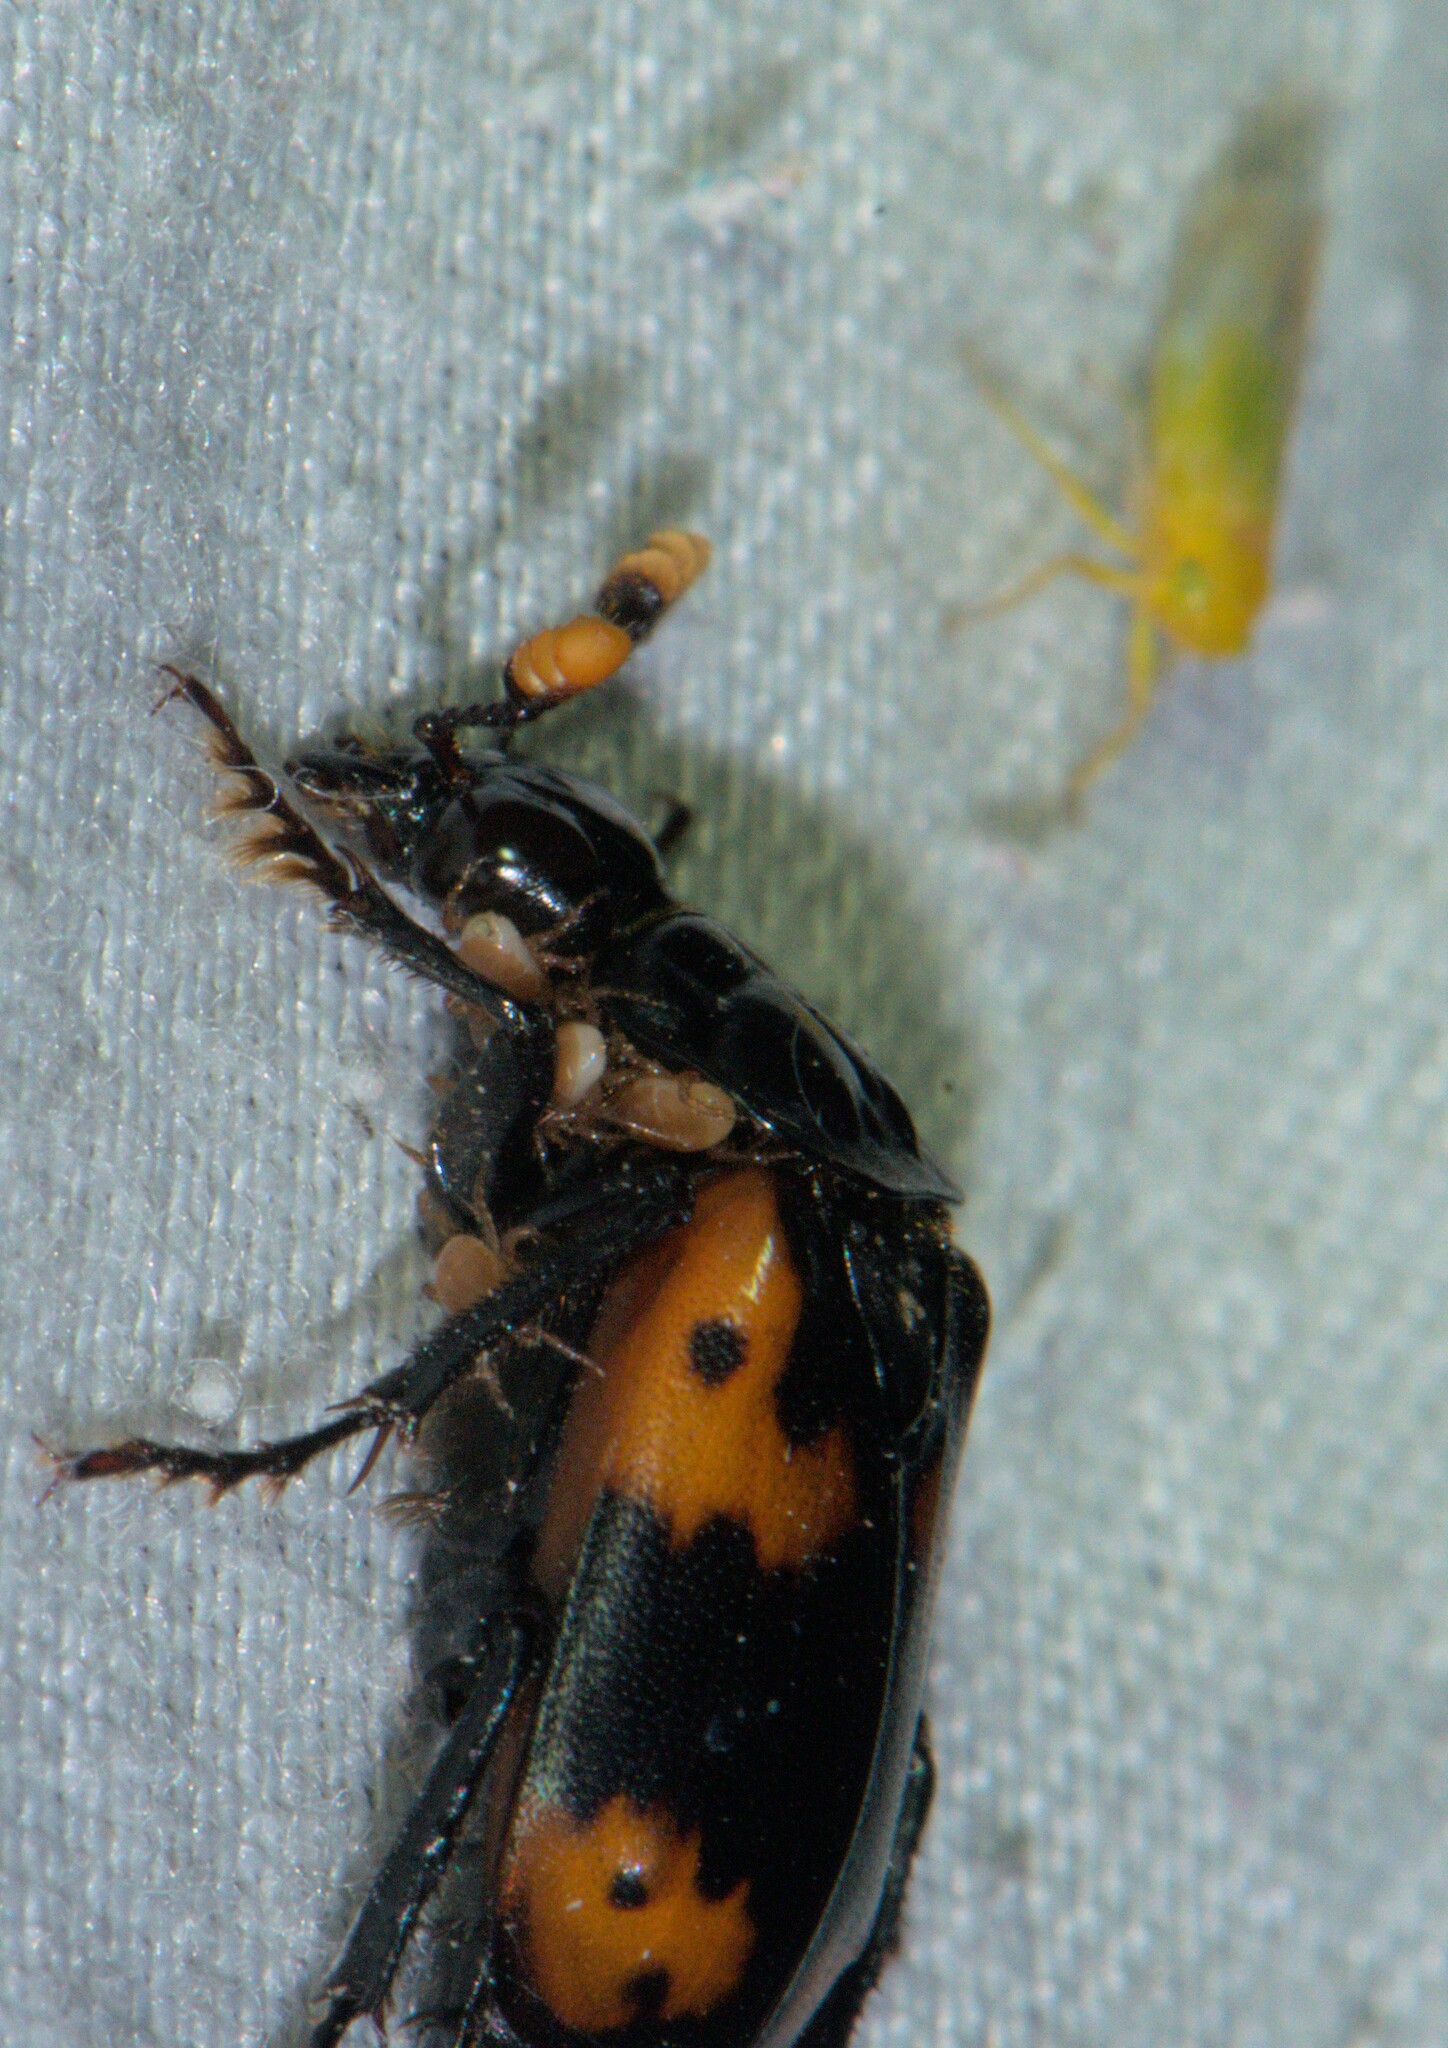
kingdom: Animalia
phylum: Arthropoda
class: Insecta
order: Coleoptera
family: Staphylinidae
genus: Nicrophorus
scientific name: Nicrophorus nepalensis
